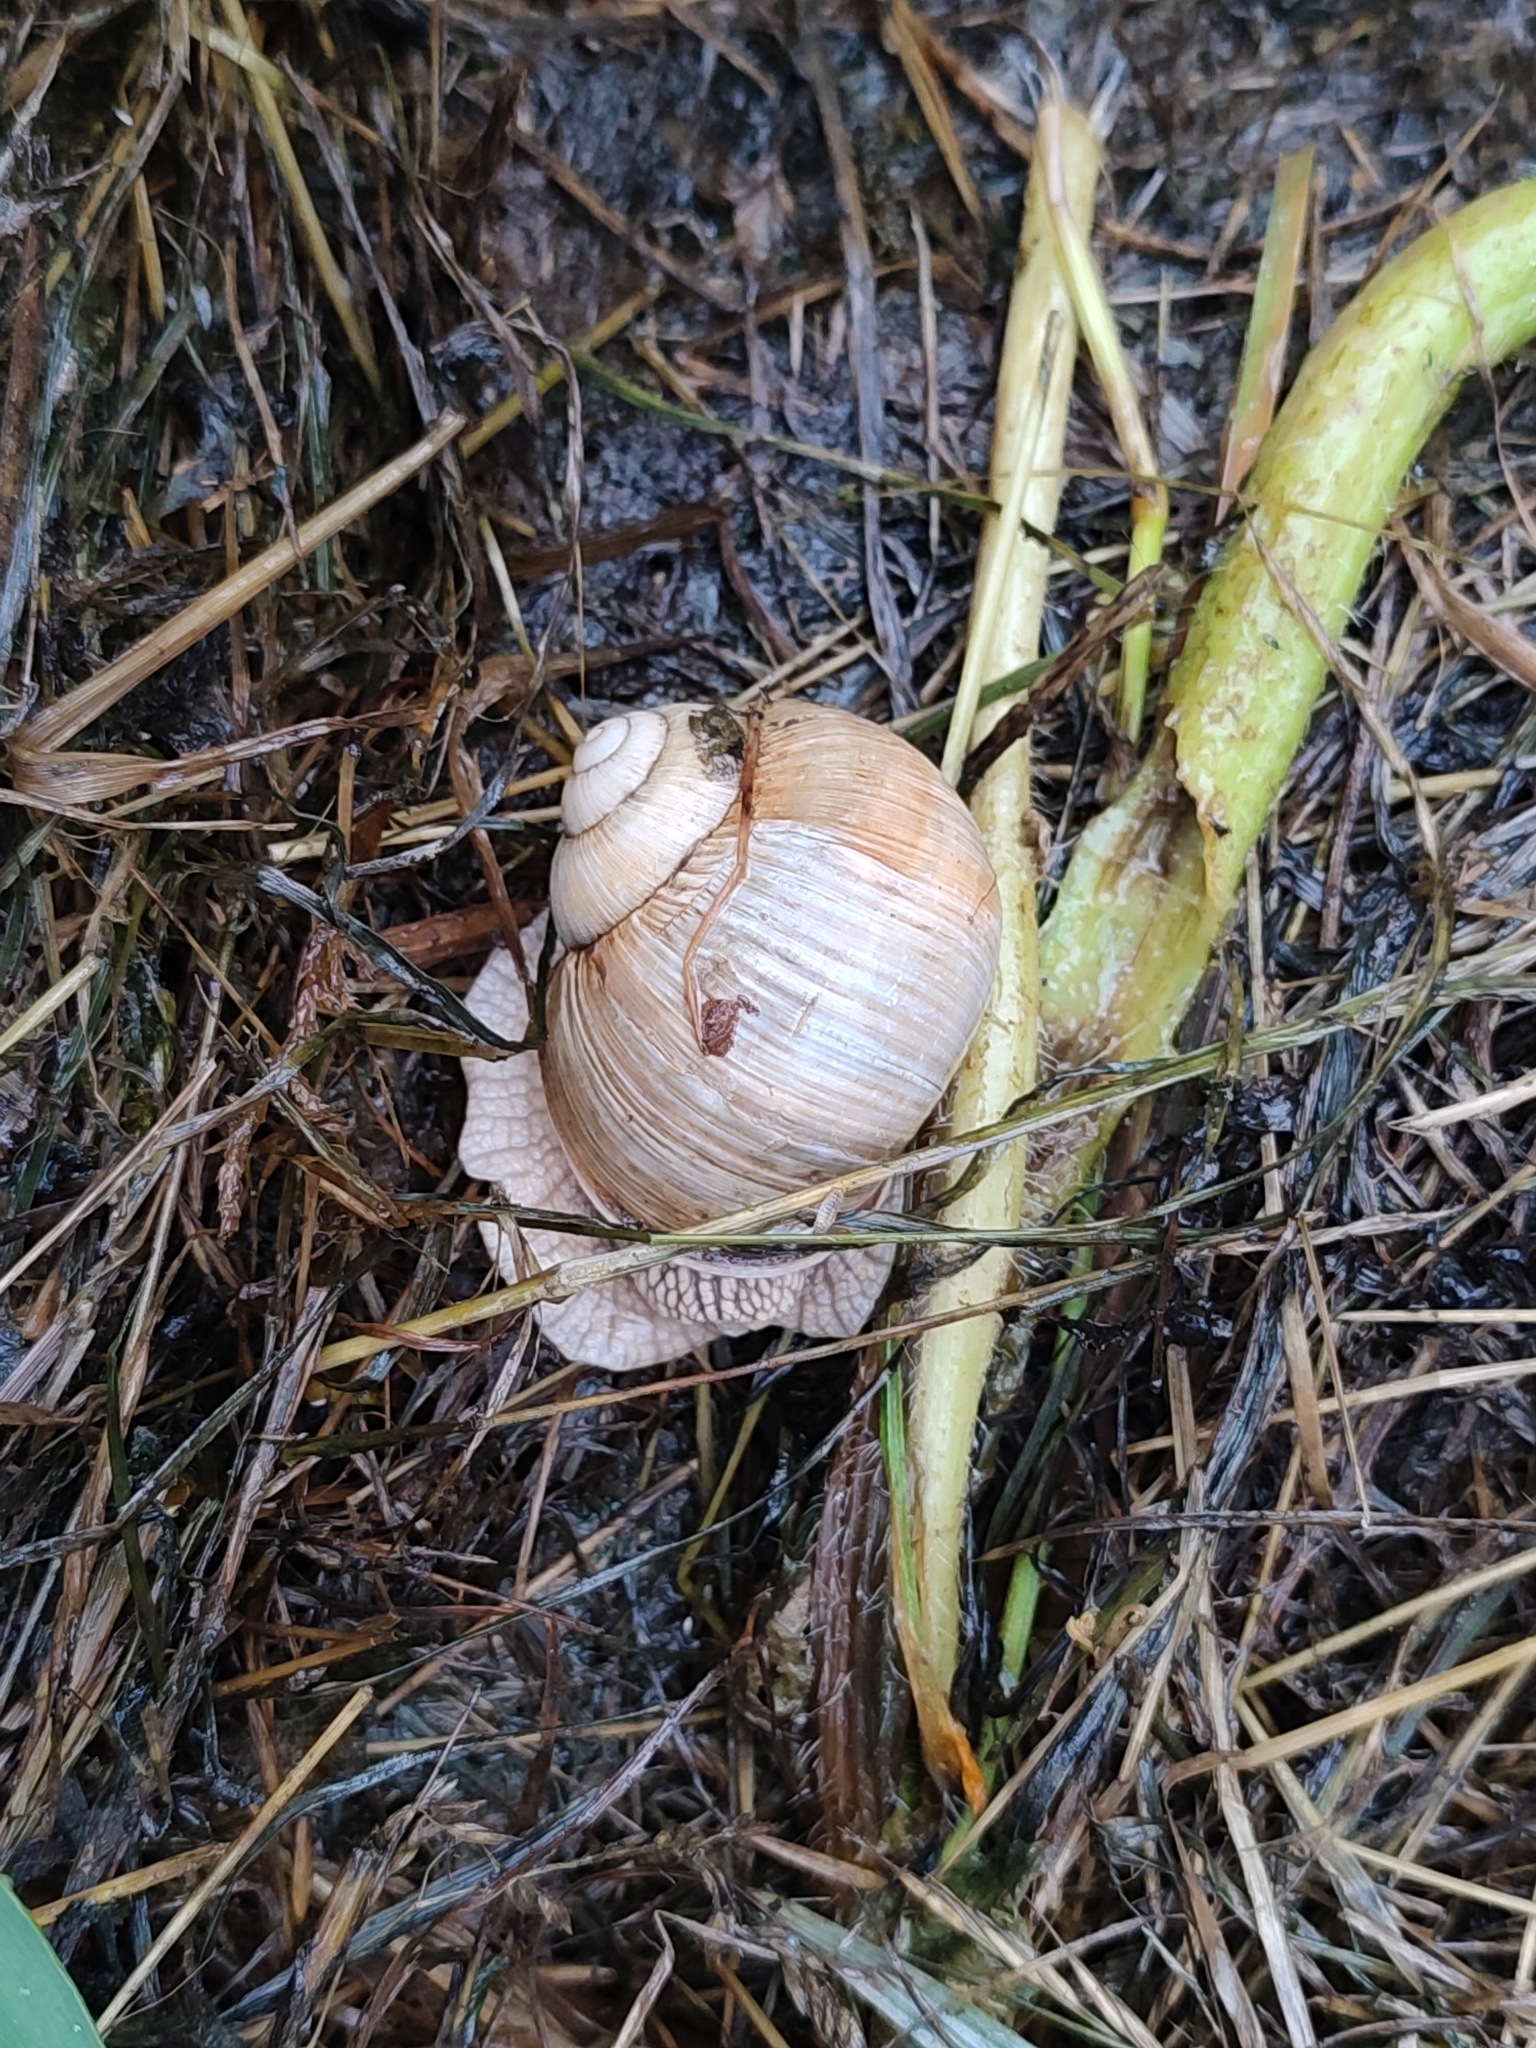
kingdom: Animalia
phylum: Mollusca
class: Gastropoda
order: Stylommatophora
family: Helicidae
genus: Helix
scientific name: Helix pomatia
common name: Roman snail
